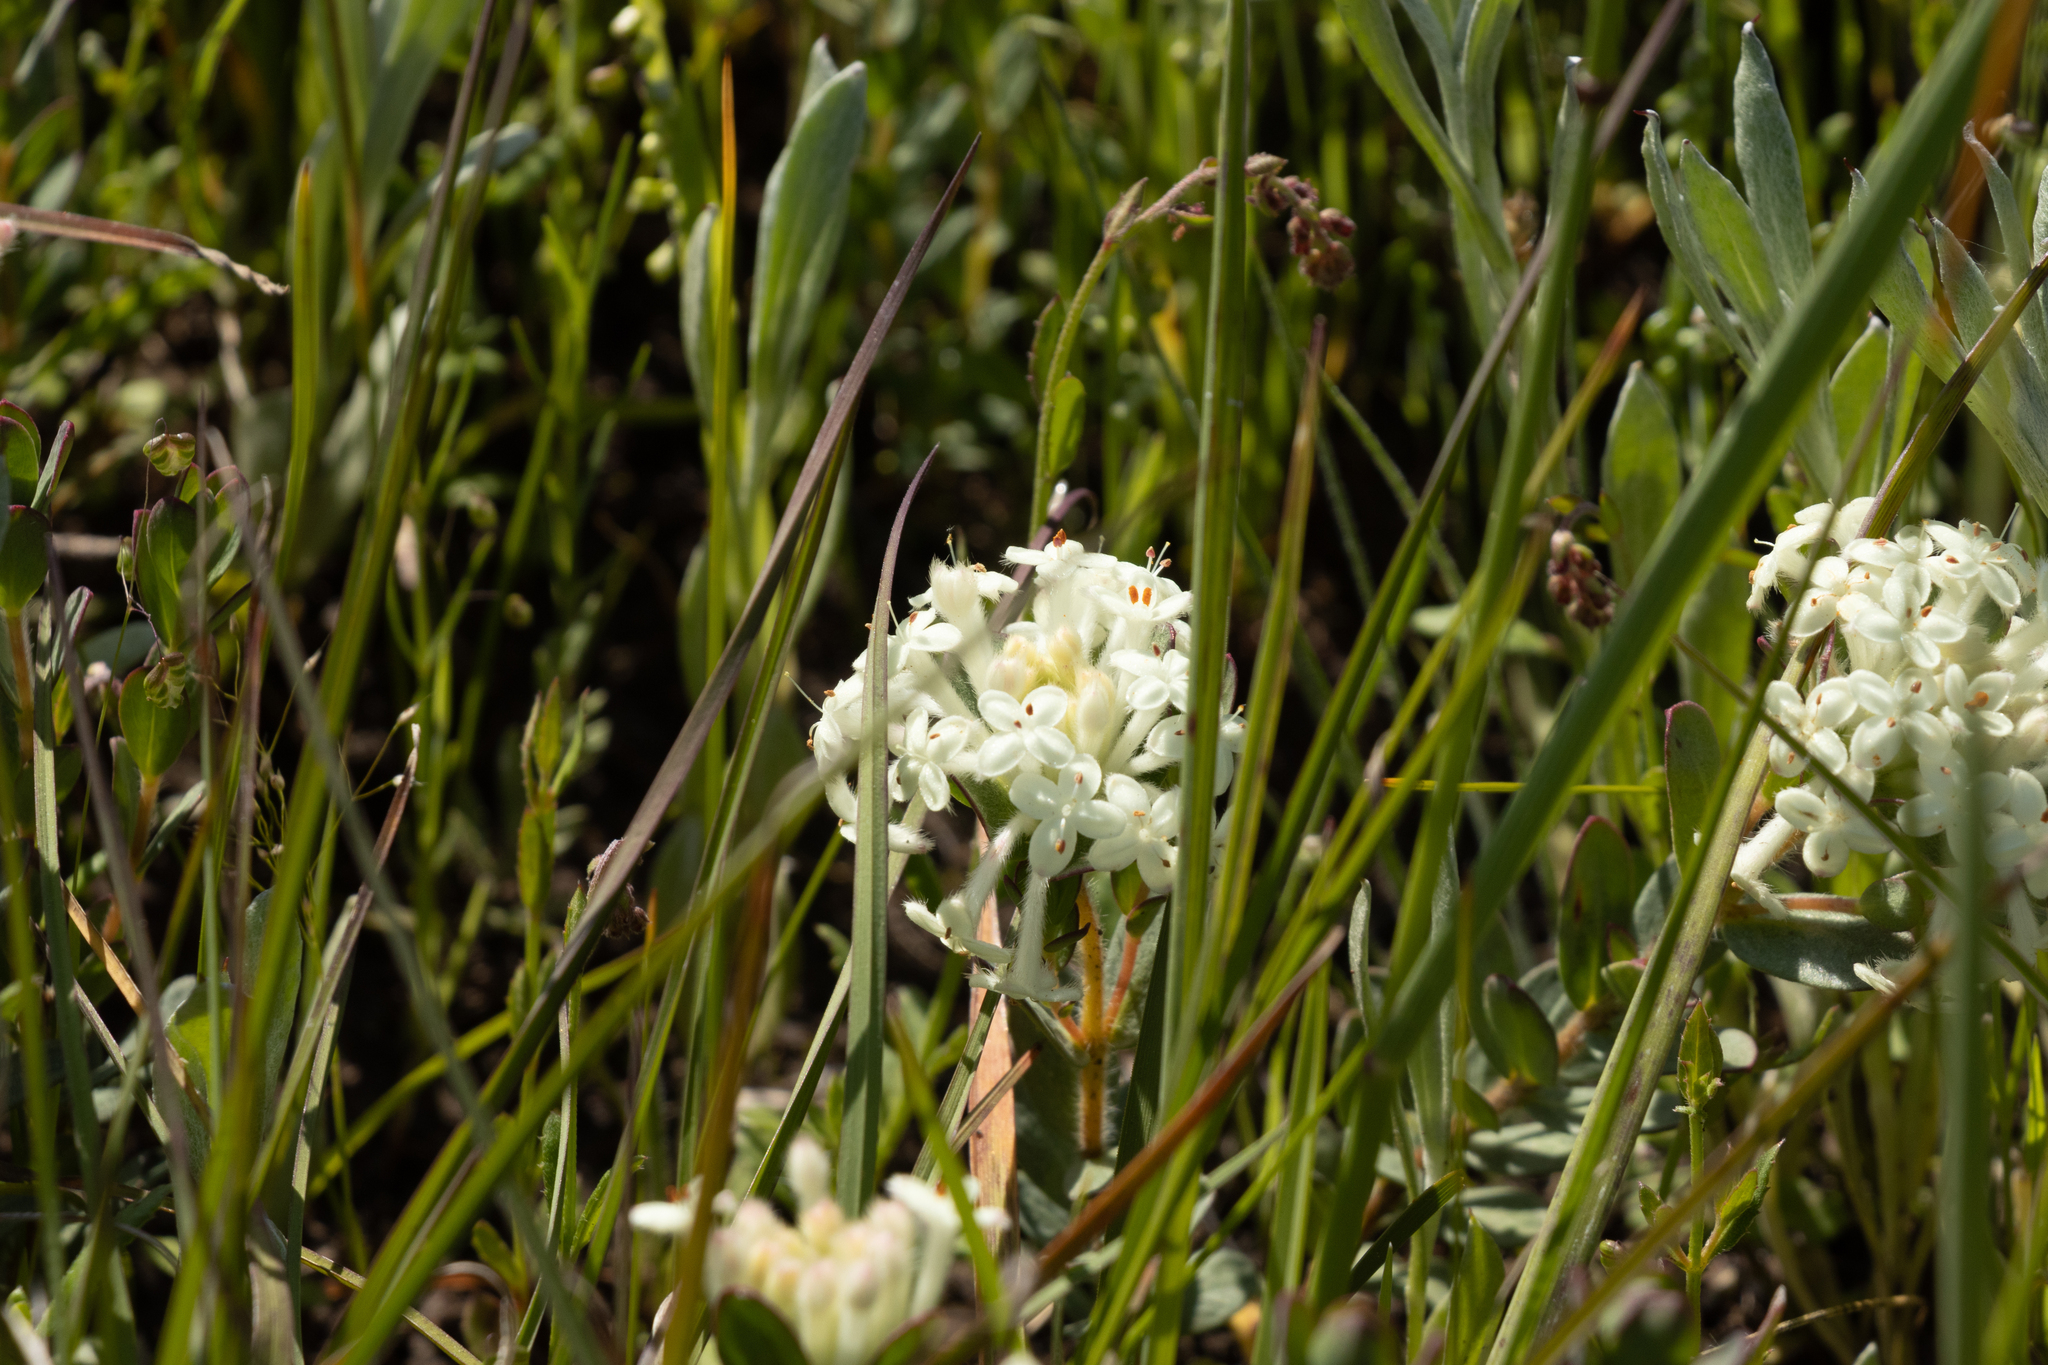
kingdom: Plantae
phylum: Tracheophyta
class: Magnoliopsida
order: Malvales
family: Thymelaeaceae
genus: Pimelea
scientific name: Pimelea humilis
